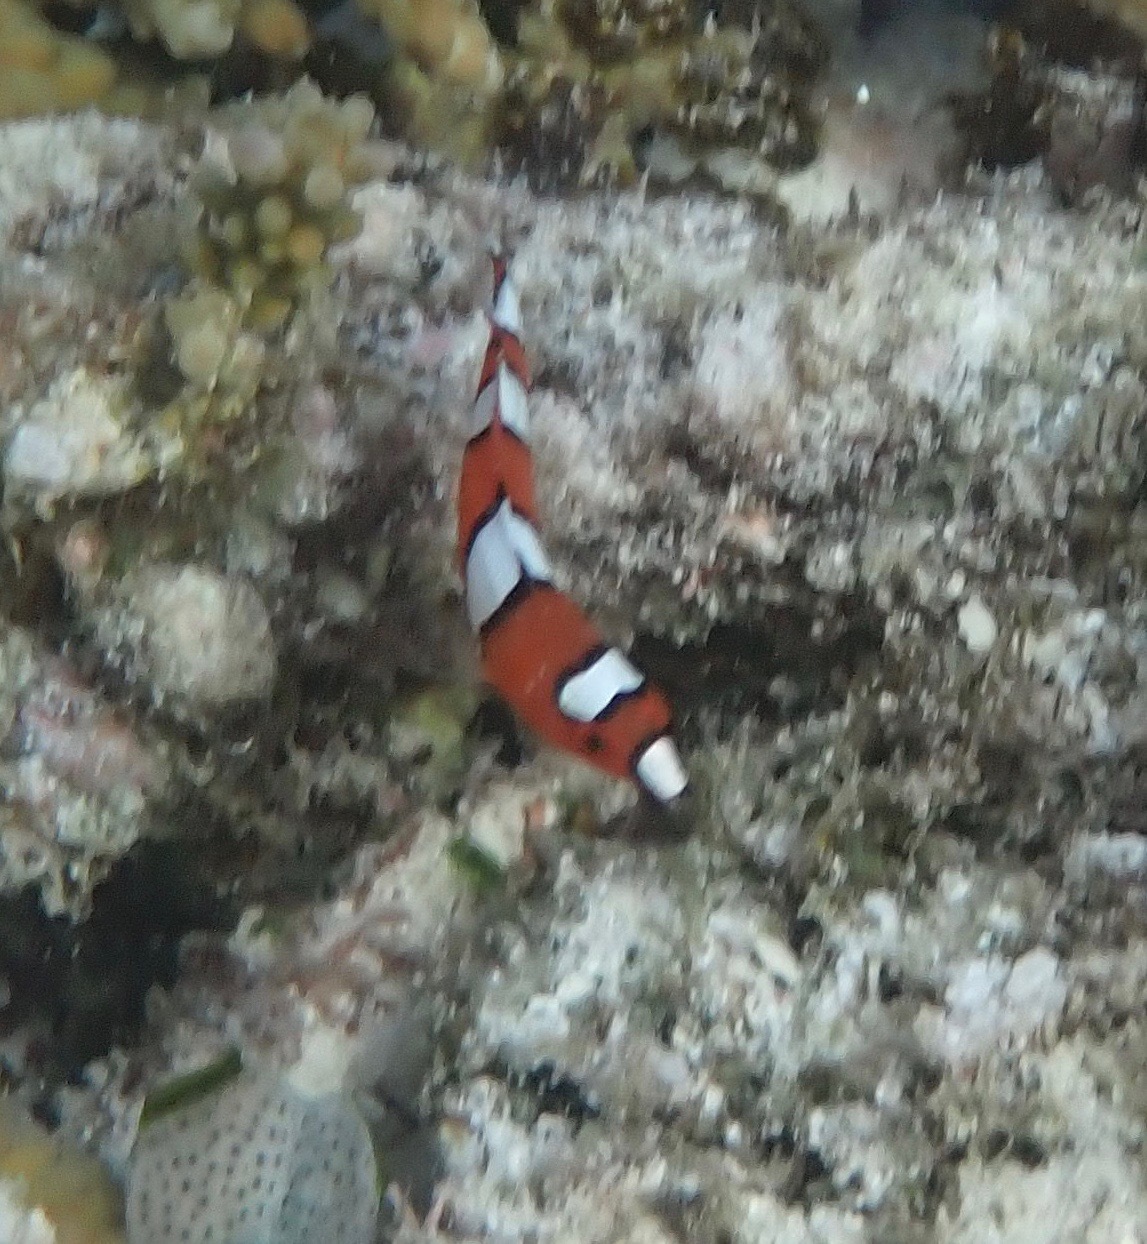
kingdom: Animalia
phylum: Chordata
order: Perciformes
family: Labridae
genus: Coris
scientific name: Coris gaimard
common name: Yellowtail coris
